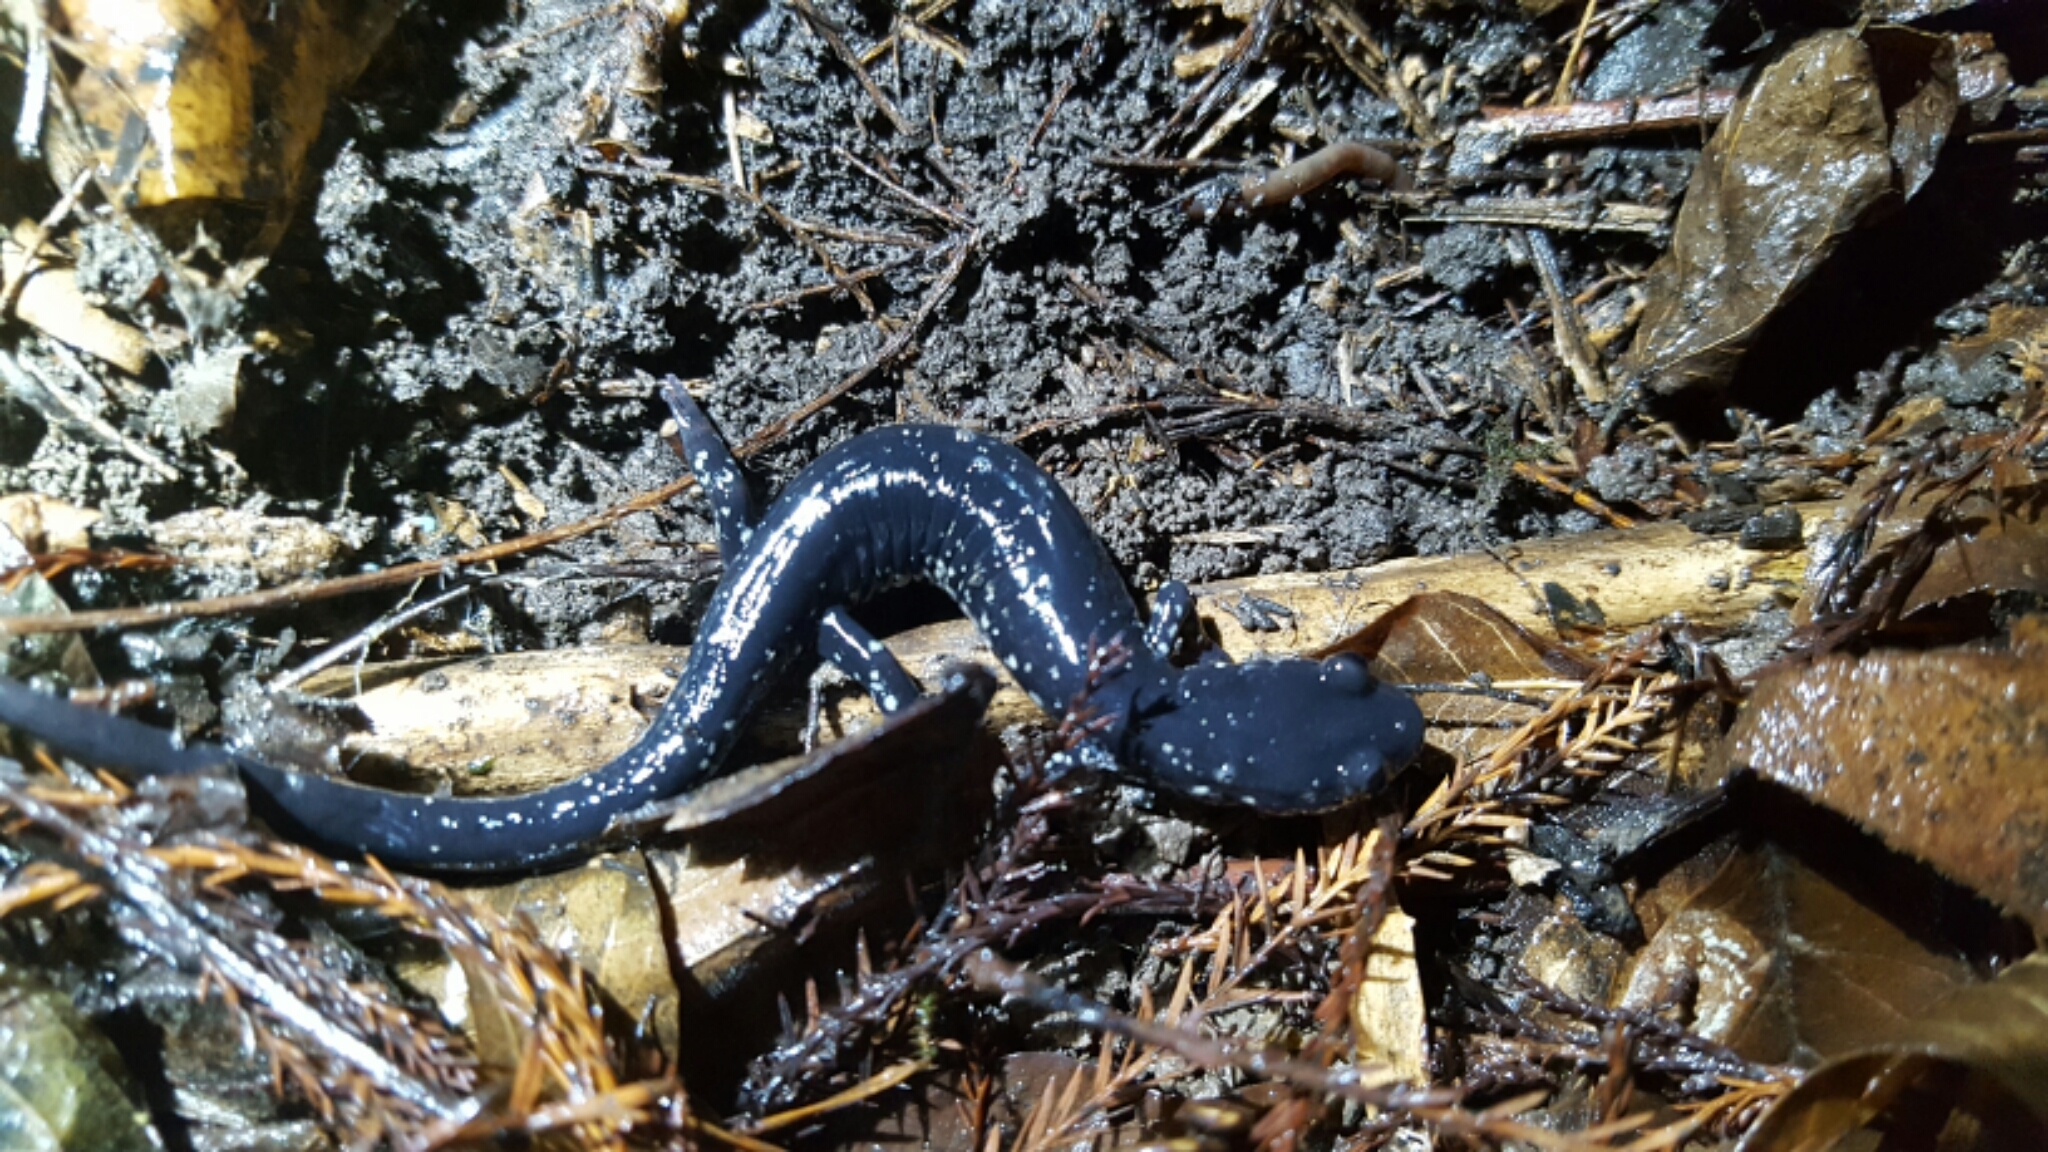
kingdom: Animalia
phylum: Chordata
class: Amphibia
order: Caudata
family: Plethodontidae
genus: Plethodon
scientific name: Plethodon albagula
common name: Western slimy salamander
